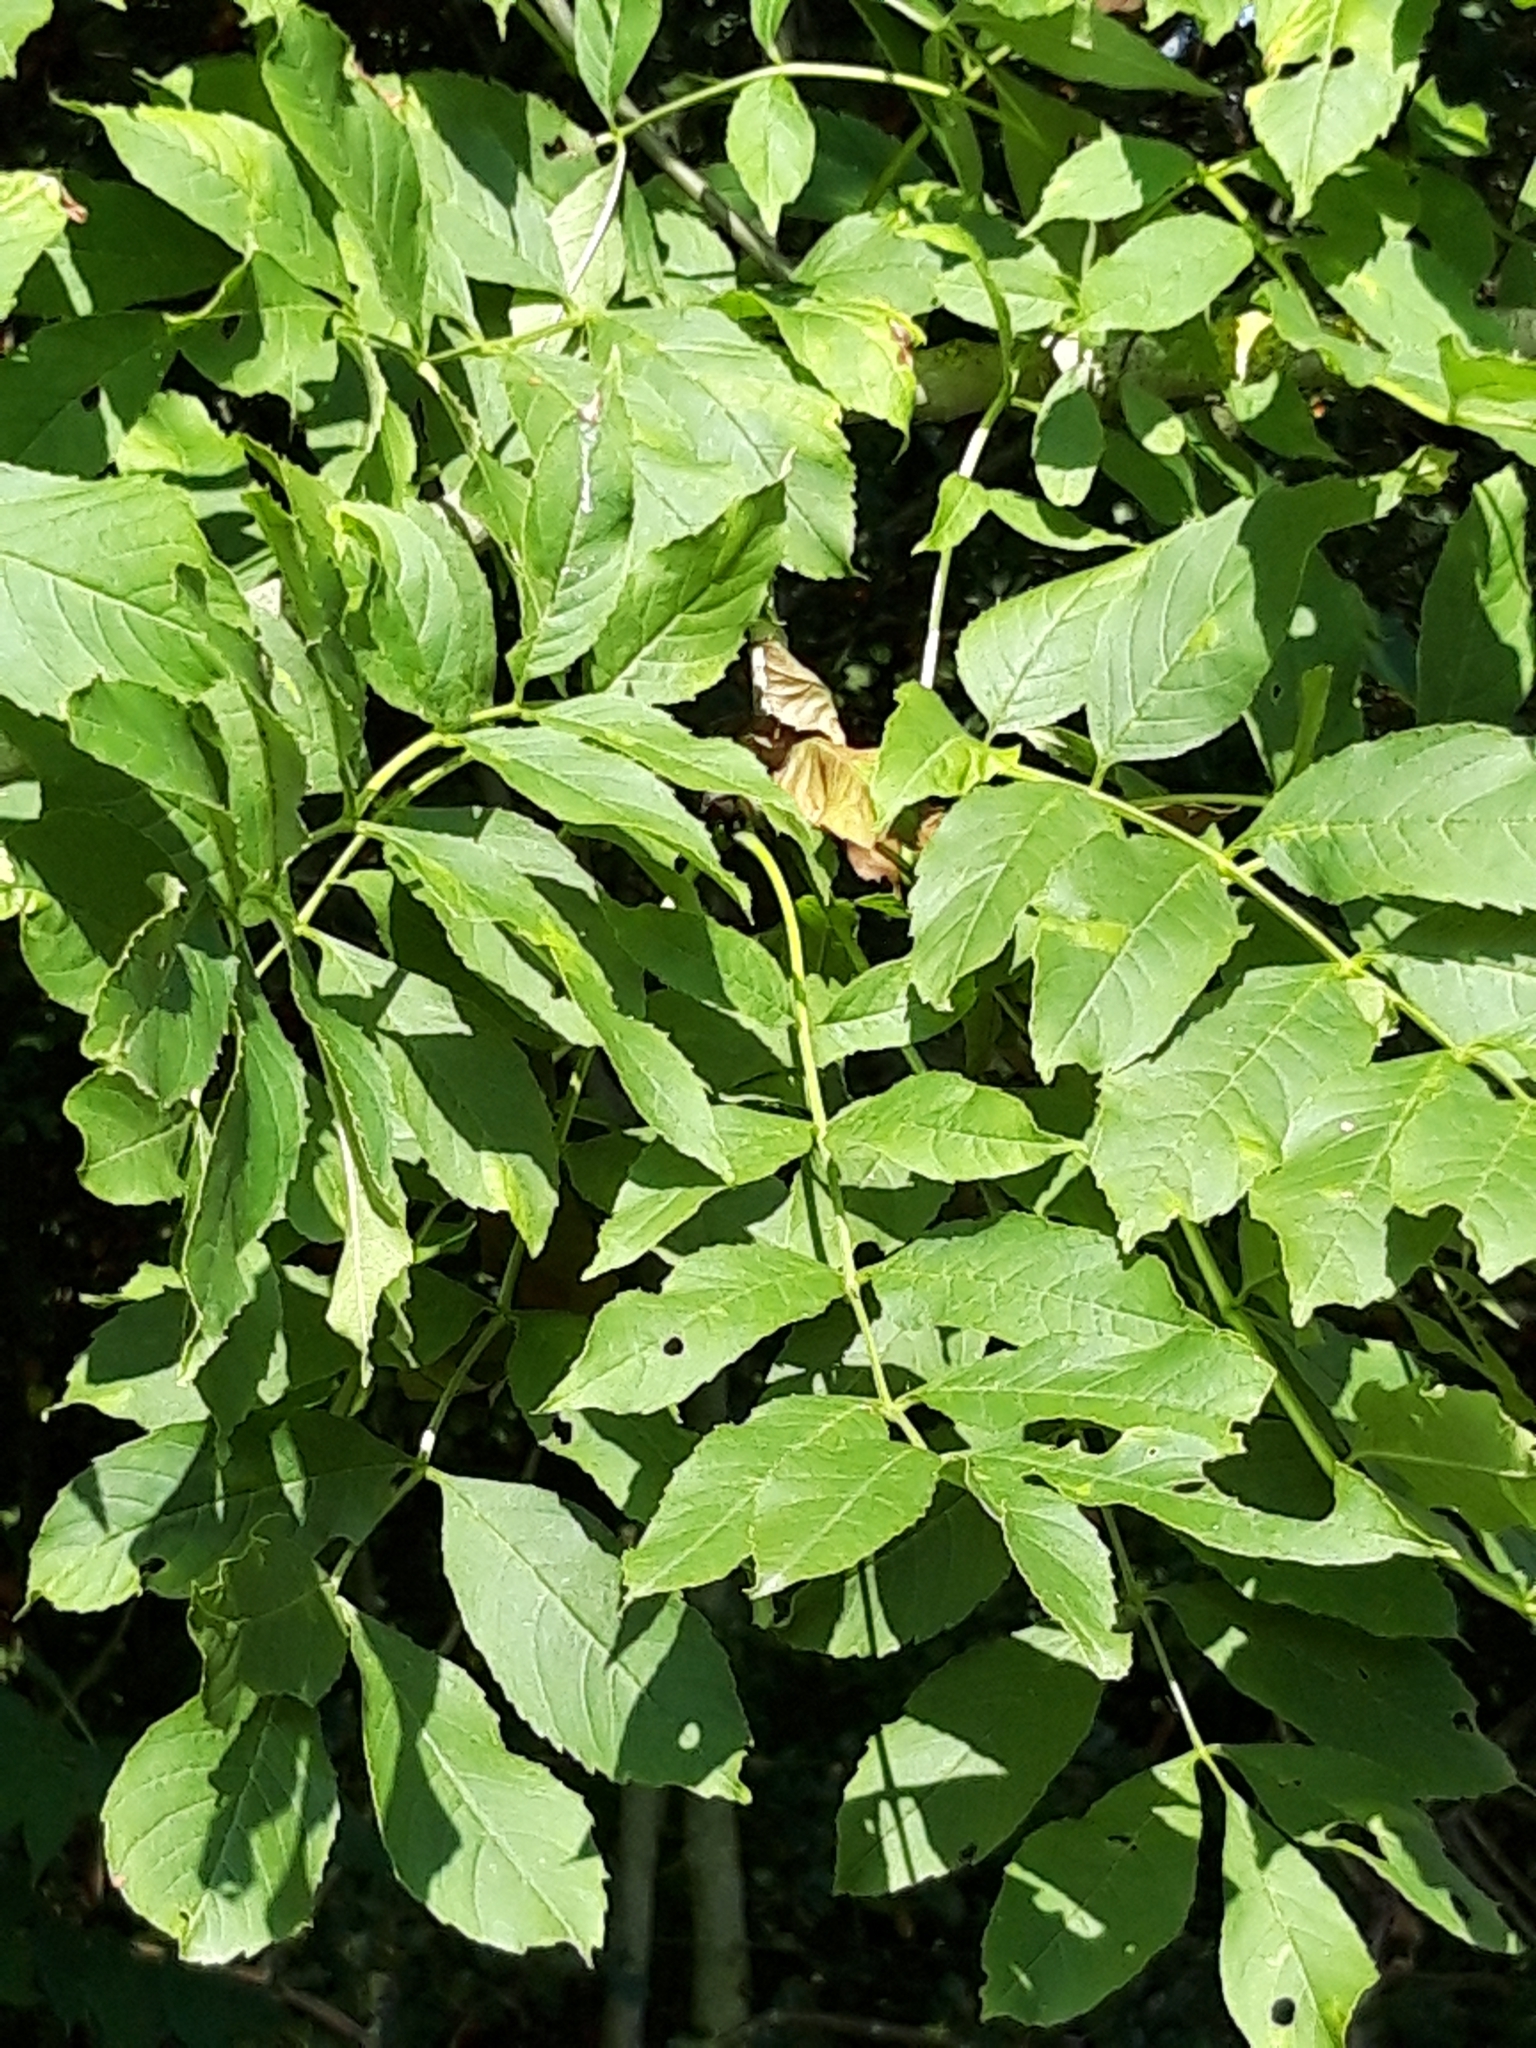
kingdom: Plantae
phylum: Tracheophyta
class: Magnoliopsida
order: Lamiales
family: Oleaceae
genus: Fraxinus
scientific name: Fraxinus excelsior
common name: European ash
